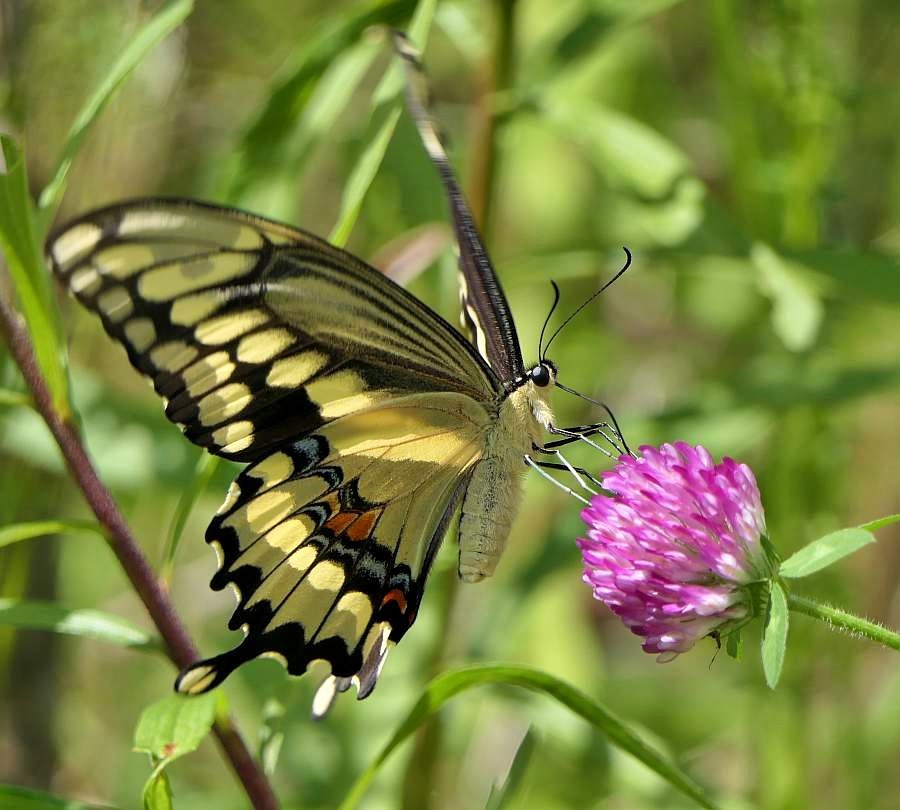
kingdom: Animalia
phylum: Arthropoda
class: Insecta
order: Lepidoptera
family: Papilionidae
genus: Papilio
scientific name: Papilio cresphontes
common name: Giant swallowtail
